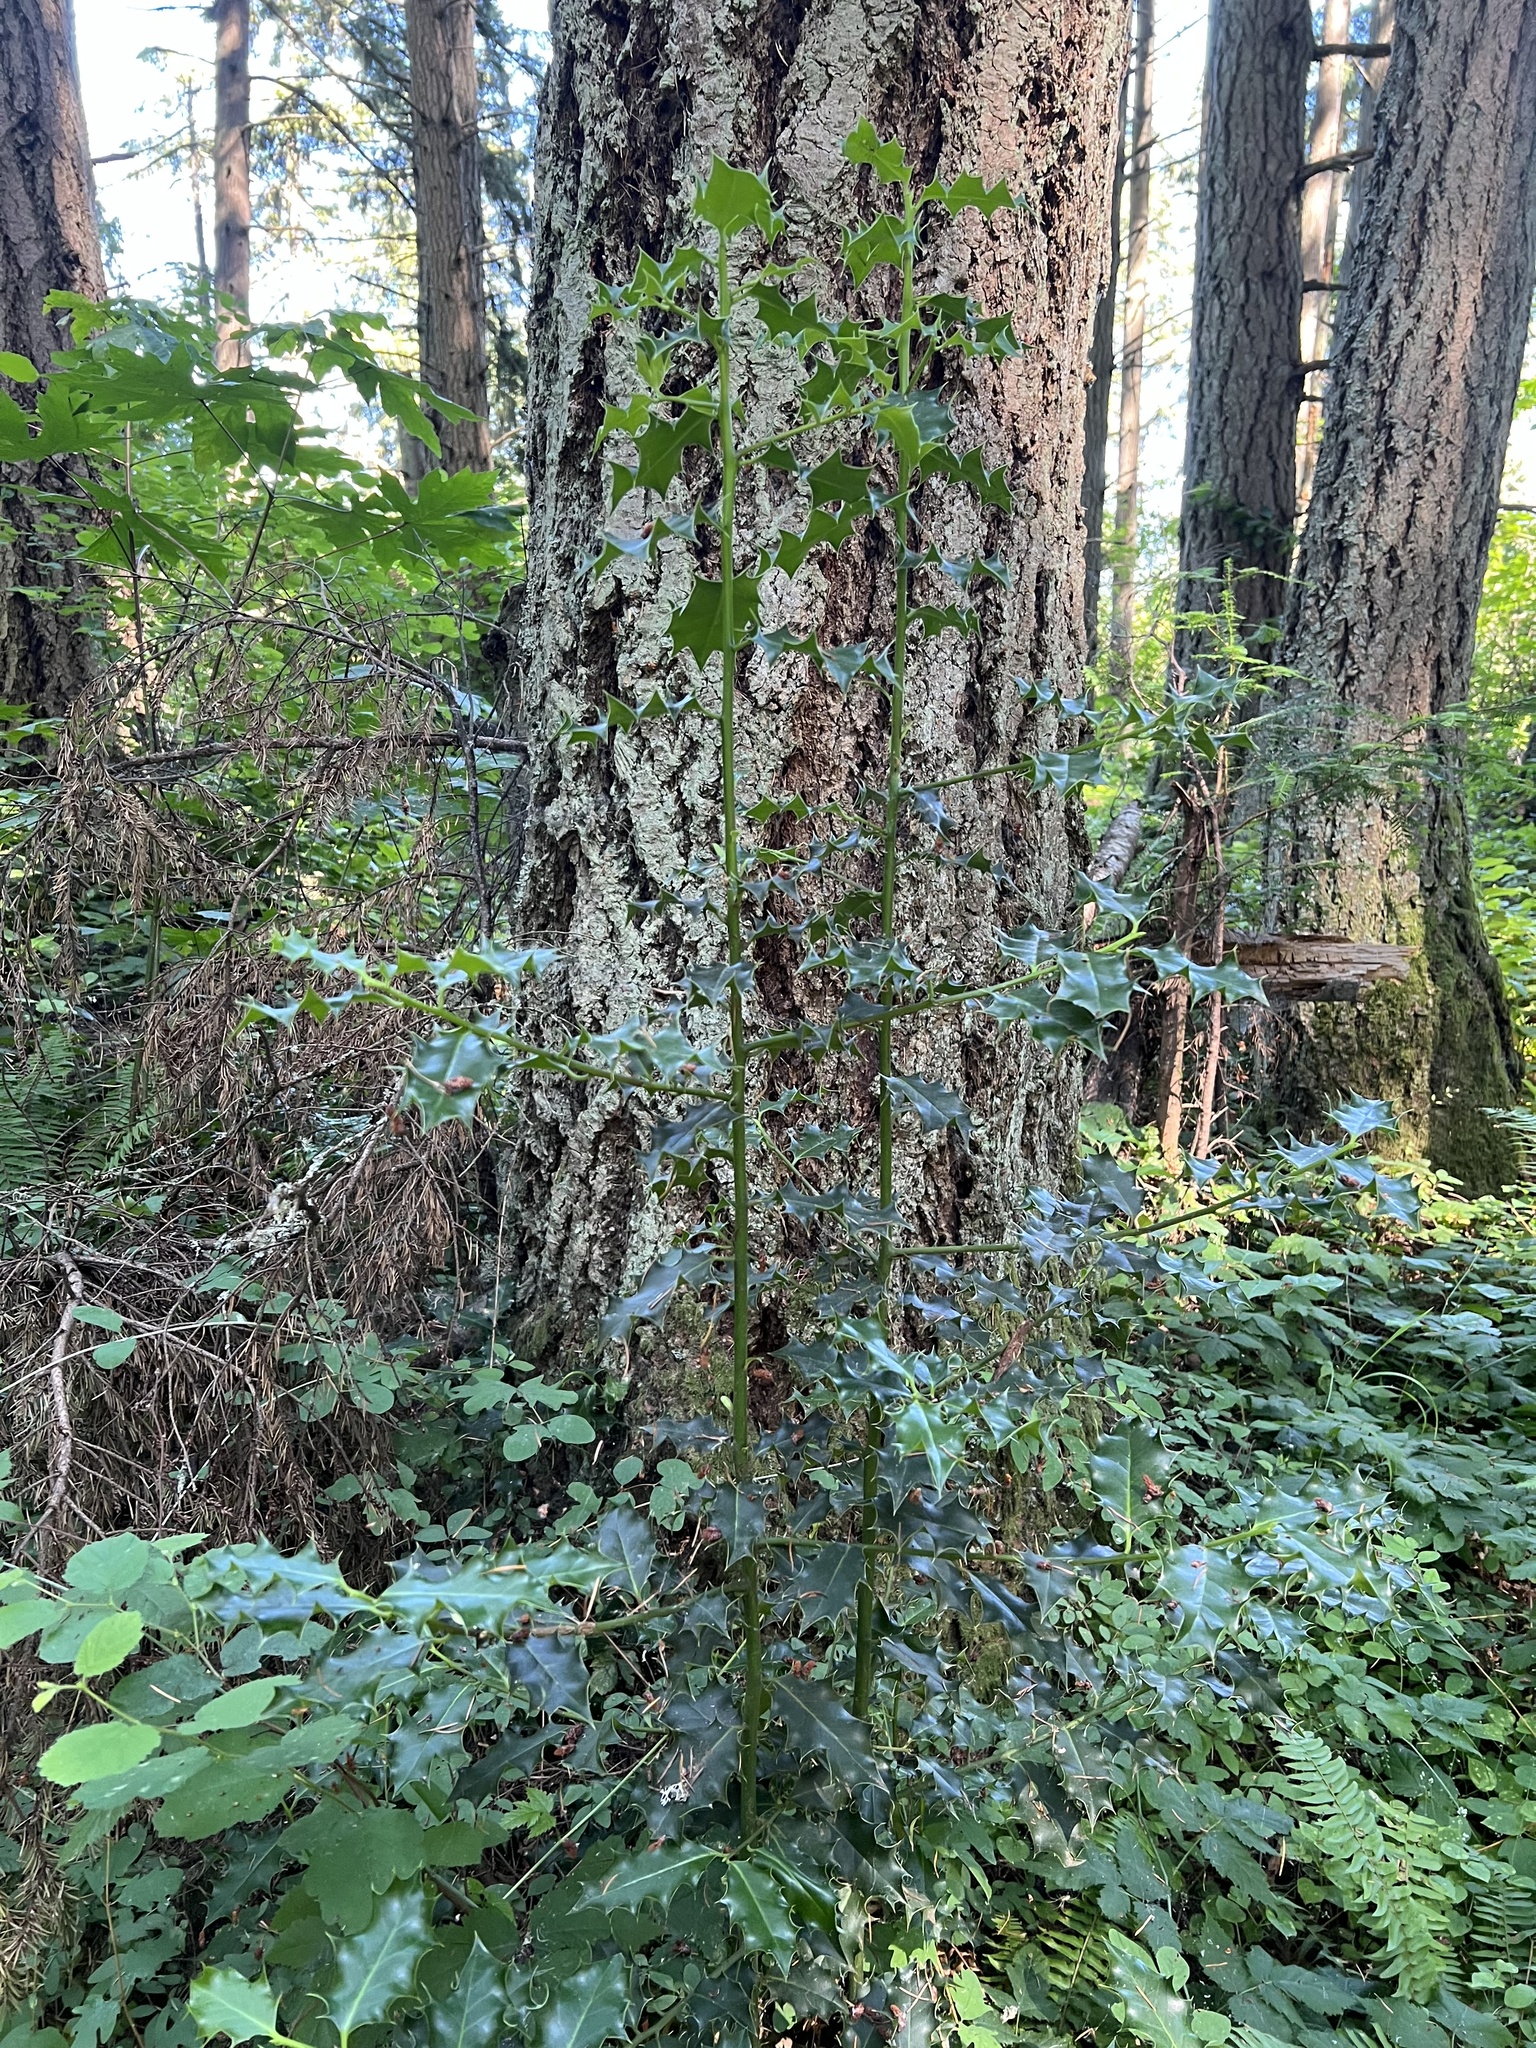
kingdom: Plantae
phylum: Tracheophyta
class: Magnoliopsida
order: Aquifoliales
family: Aquifoliaceae
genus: Ilex
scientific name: Ilex aquifolium
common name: English holly
